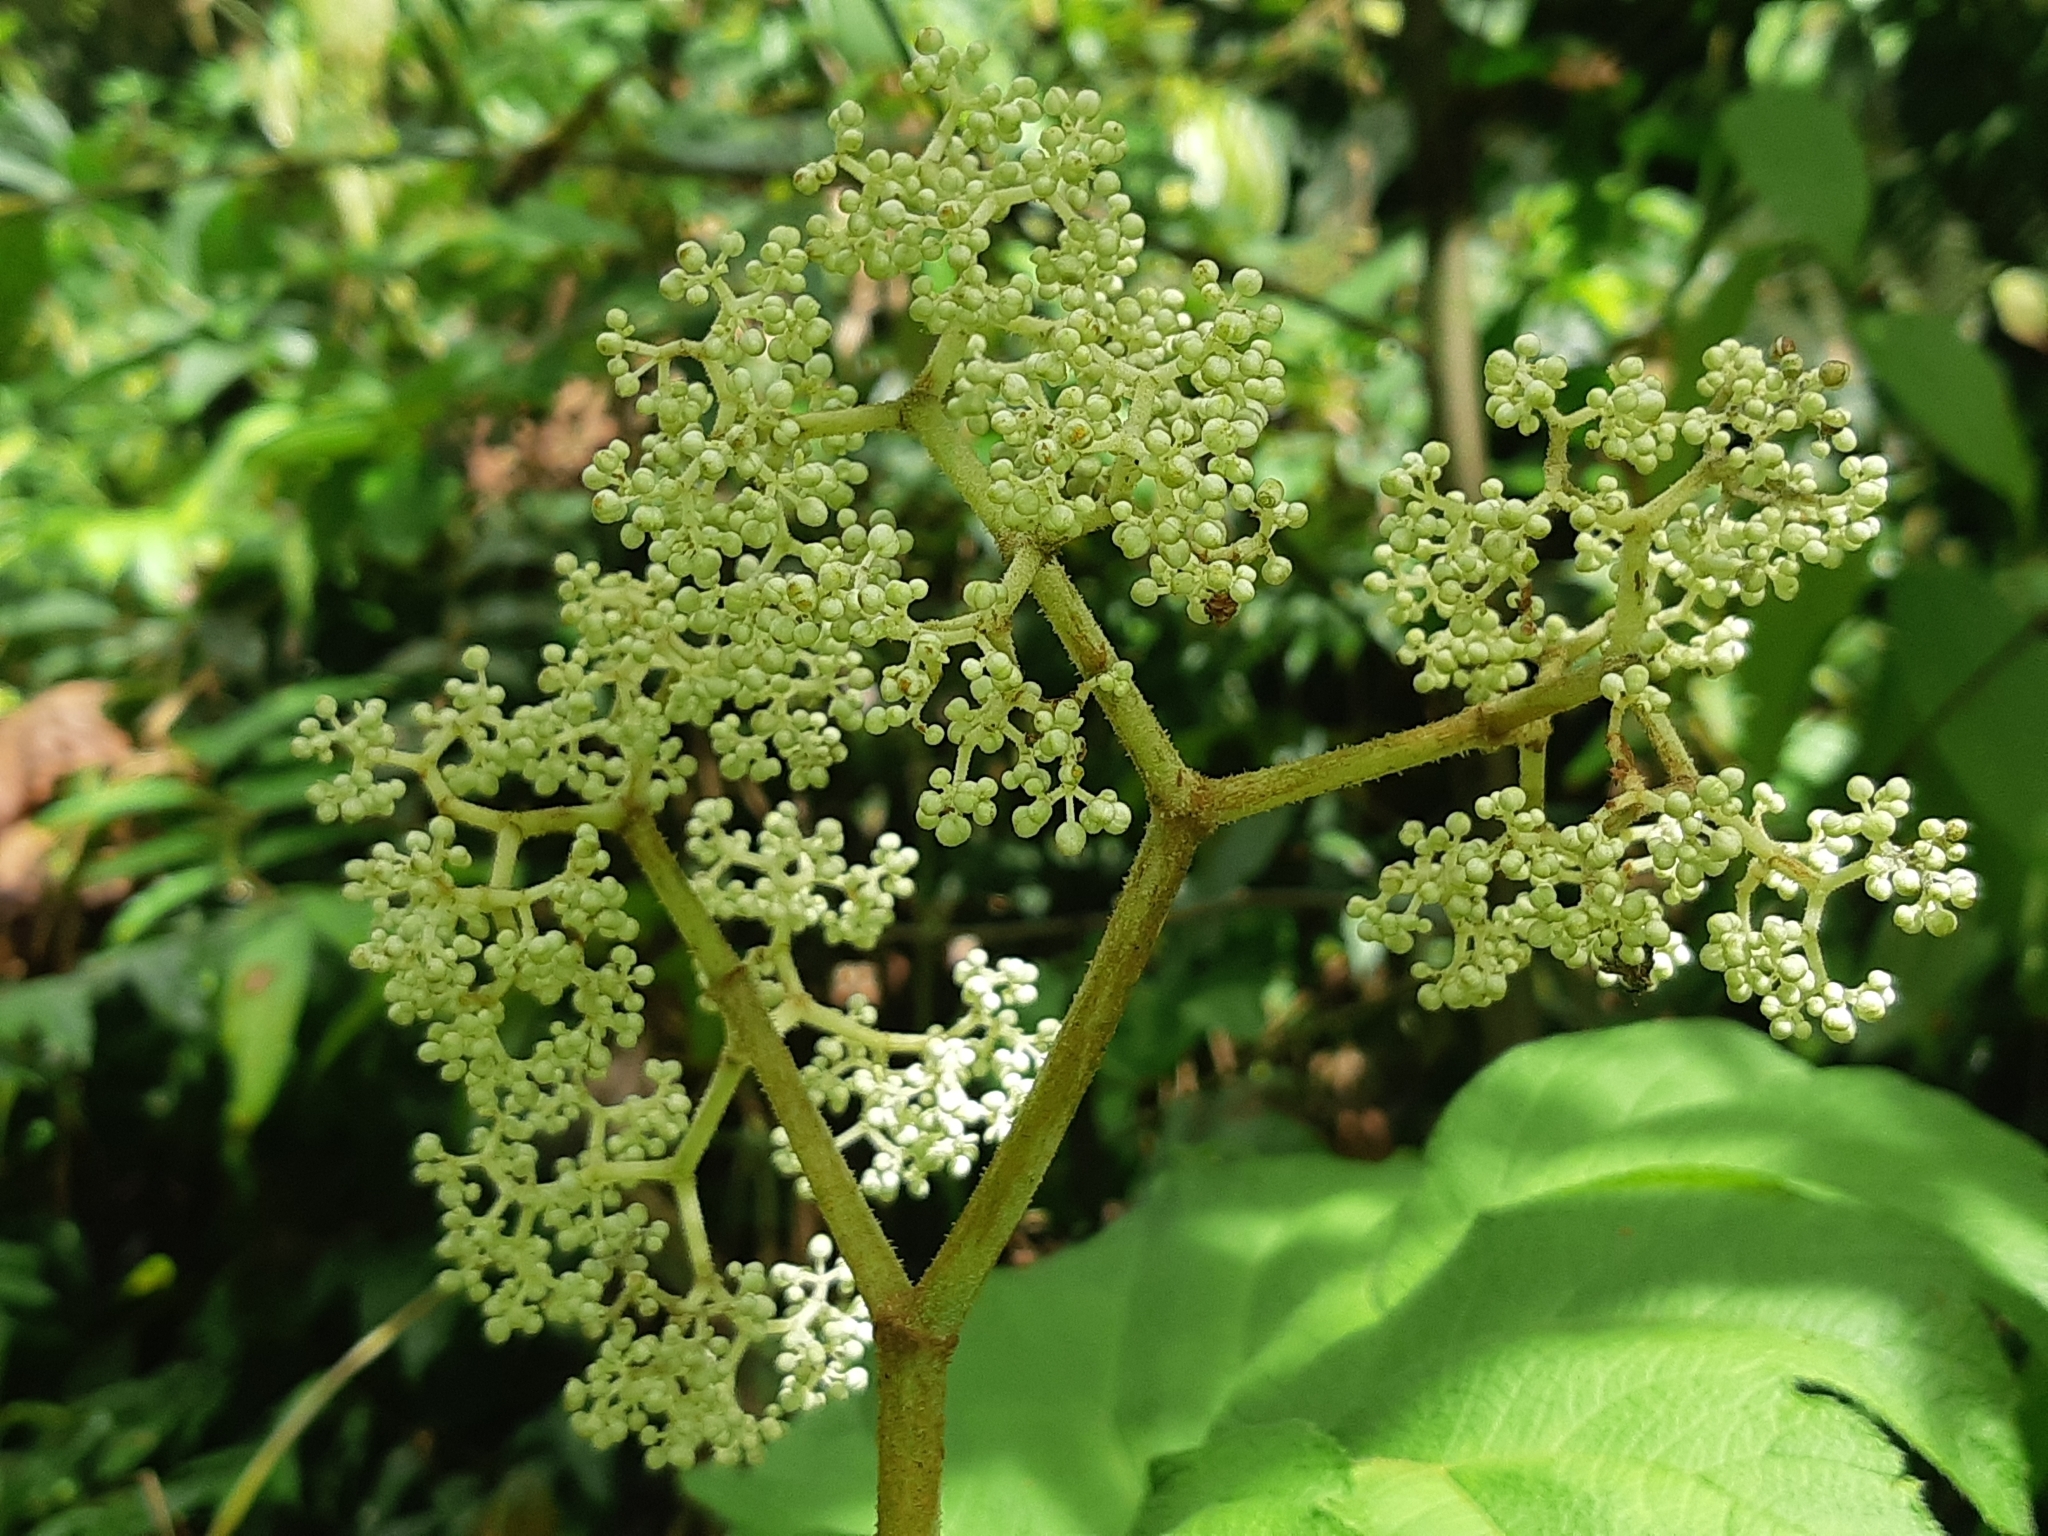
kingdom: Plantae
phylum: Tracheophyta
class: Magnoliopsida
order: Cucurbitales
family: Begoniaceae
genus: Begonia
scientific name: Begonia parviflora
